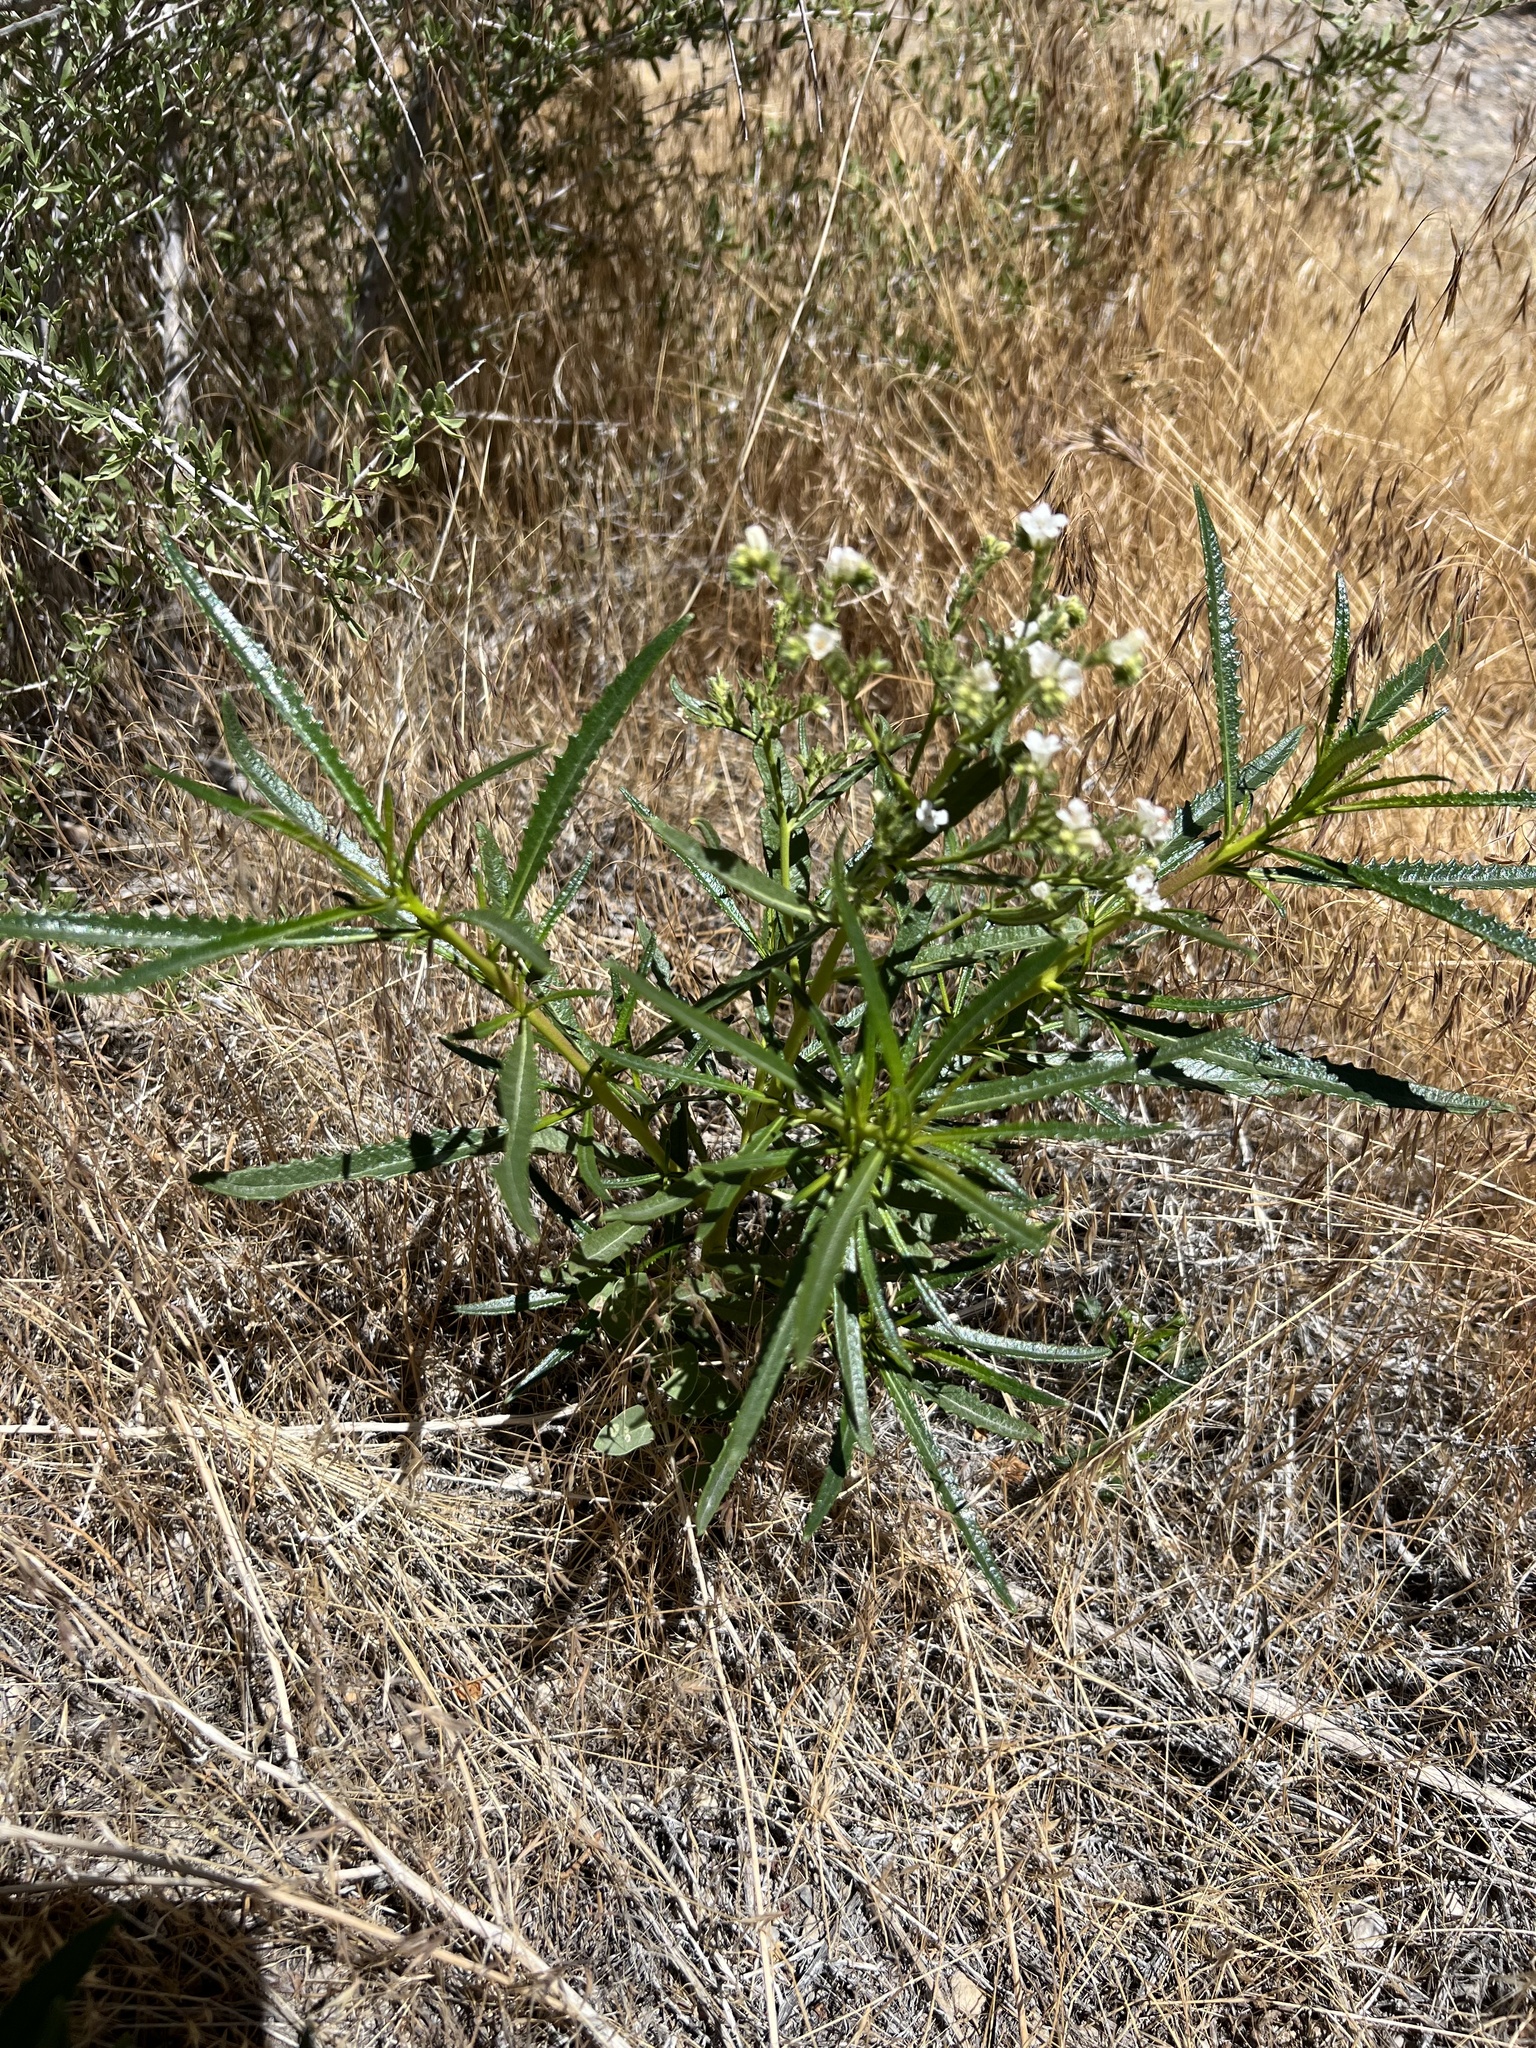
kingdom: Plantae
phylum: Tracheophyta
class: Magnoliopsida
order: Boraginales
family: Namaceae
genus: Eriodictyon
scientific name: Eriodictyon angustifolium
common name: Narrow-leaf yerba santa
